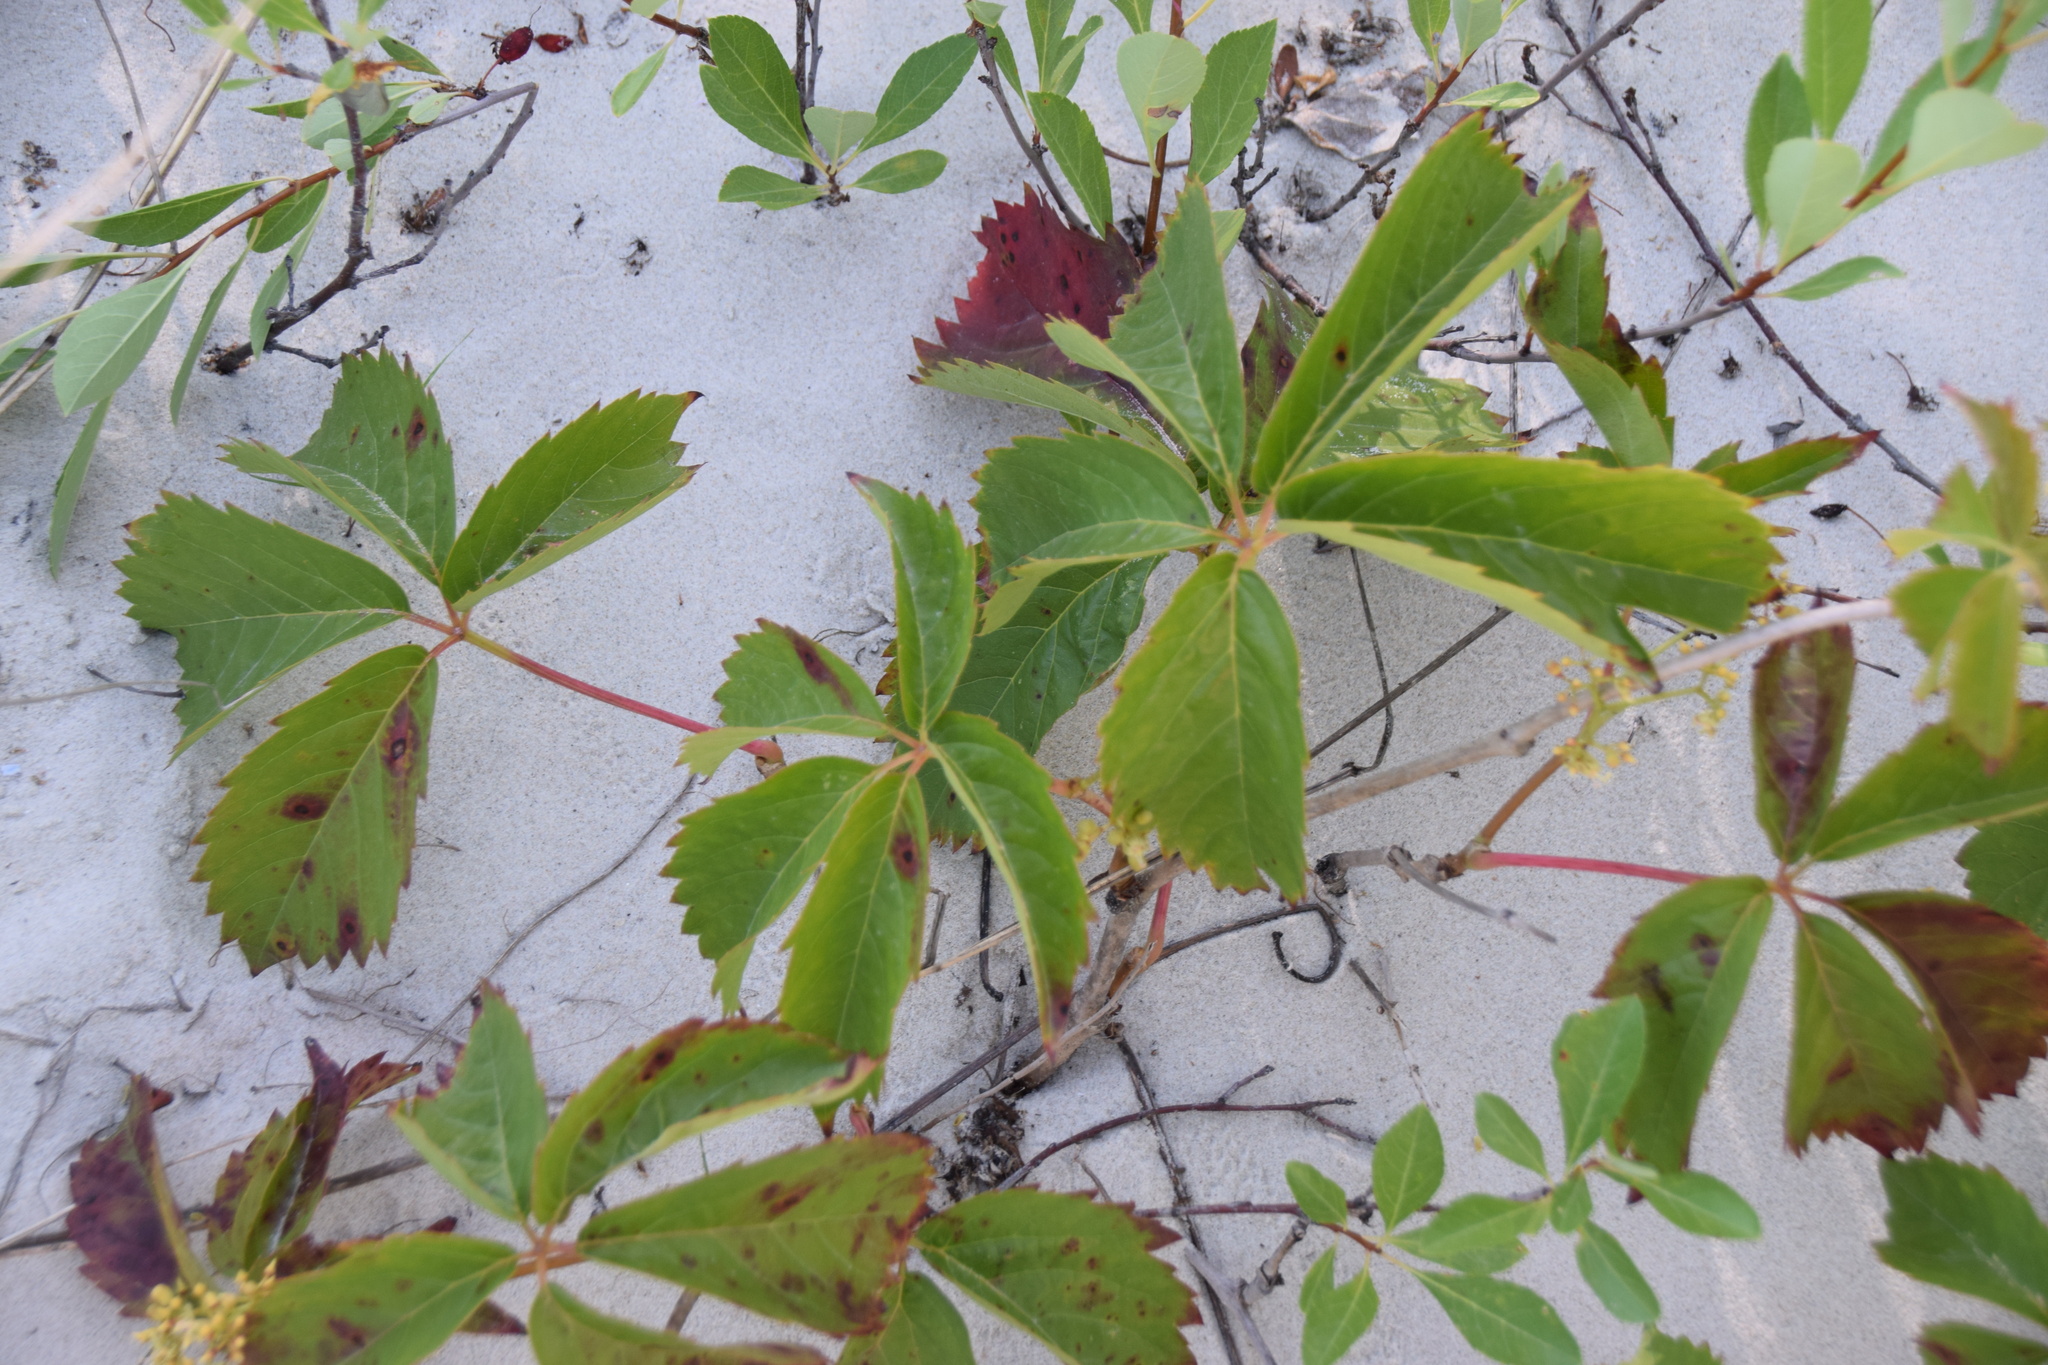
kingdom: Plantae
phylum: Tracheophyta
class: Magnoliopsida
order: Vitales
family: Vitaceae
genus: Parthenocissus
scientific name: Parthenocissus quinquefolia
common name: Virginia-creeper
